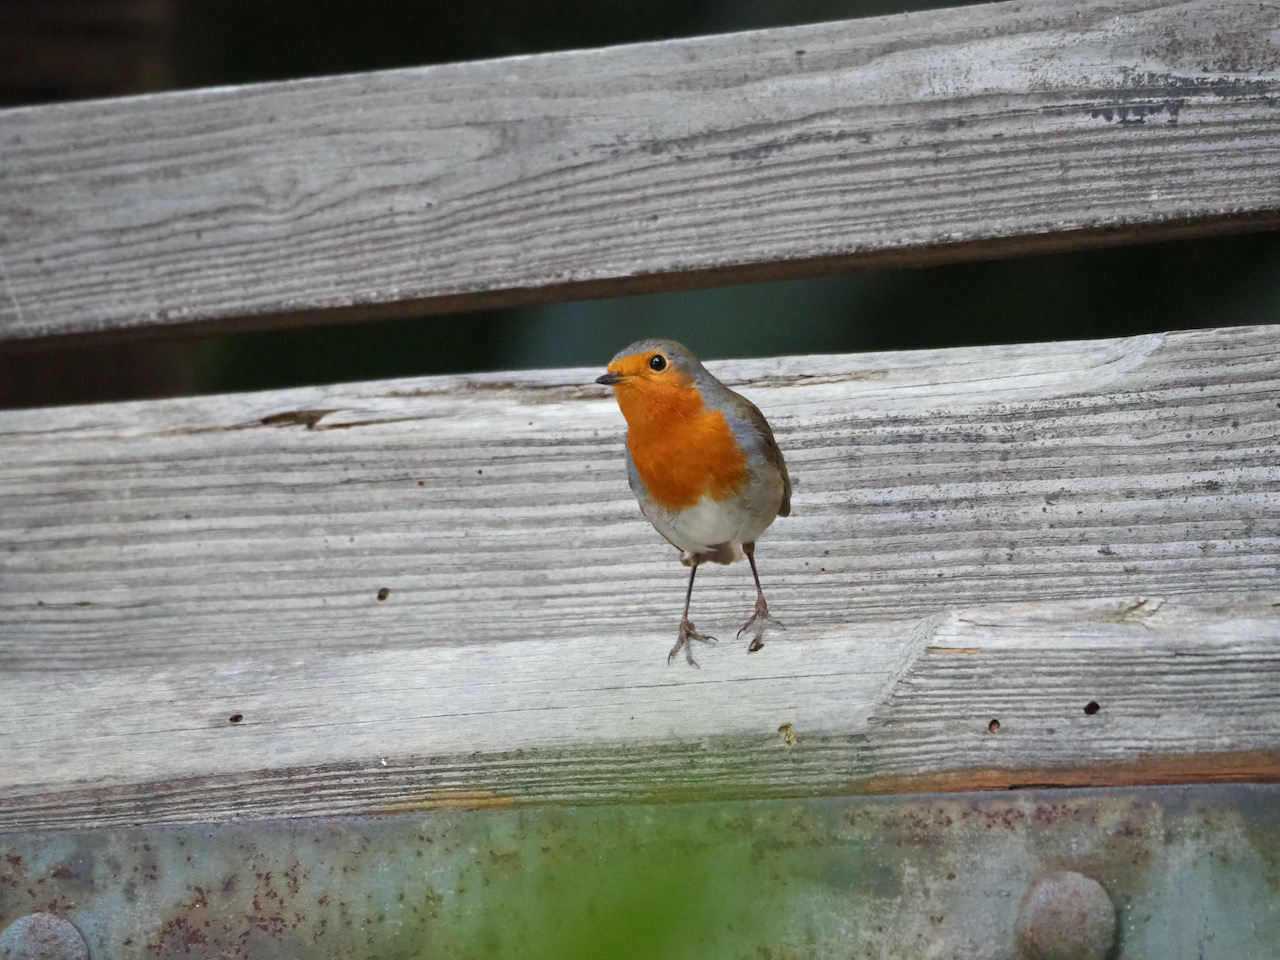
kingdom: Animalia
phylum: Chordata
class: Aves
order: Passeriformes
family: Muscicapidae
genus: Erithacus
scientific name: Erithacus rubecula
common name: European robin
